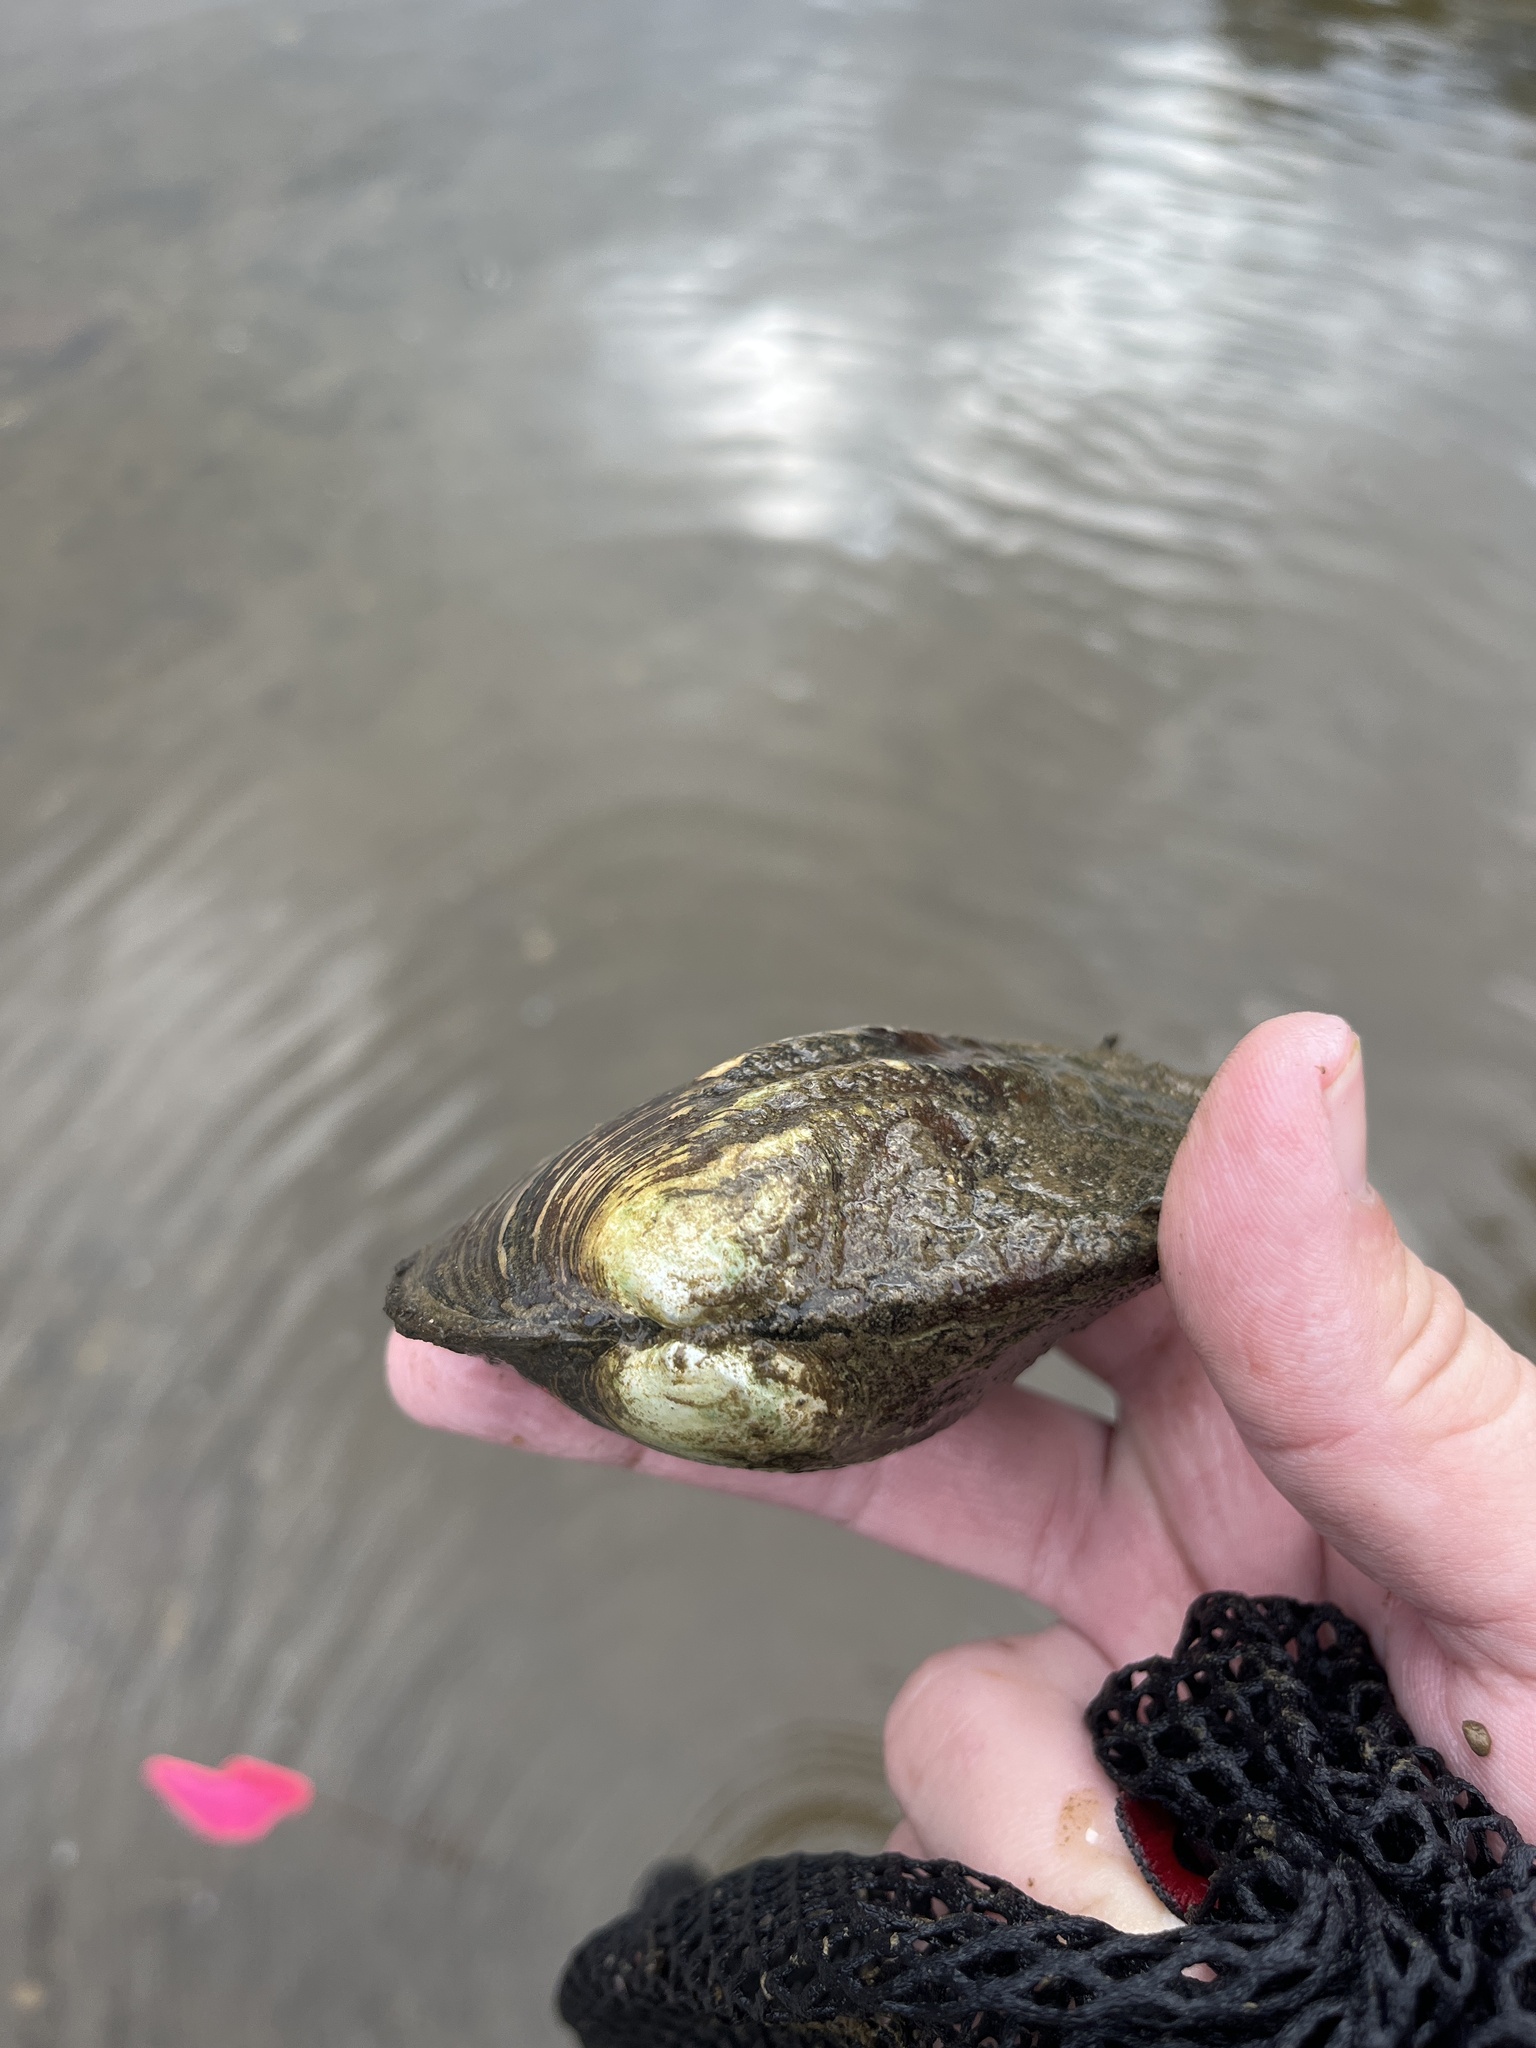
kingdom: Animalia
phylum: Mollusca
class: Bivalvia
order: Unionida
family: Unionidae
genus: Amblema
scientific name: Amblema plicata
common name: Threeridge
